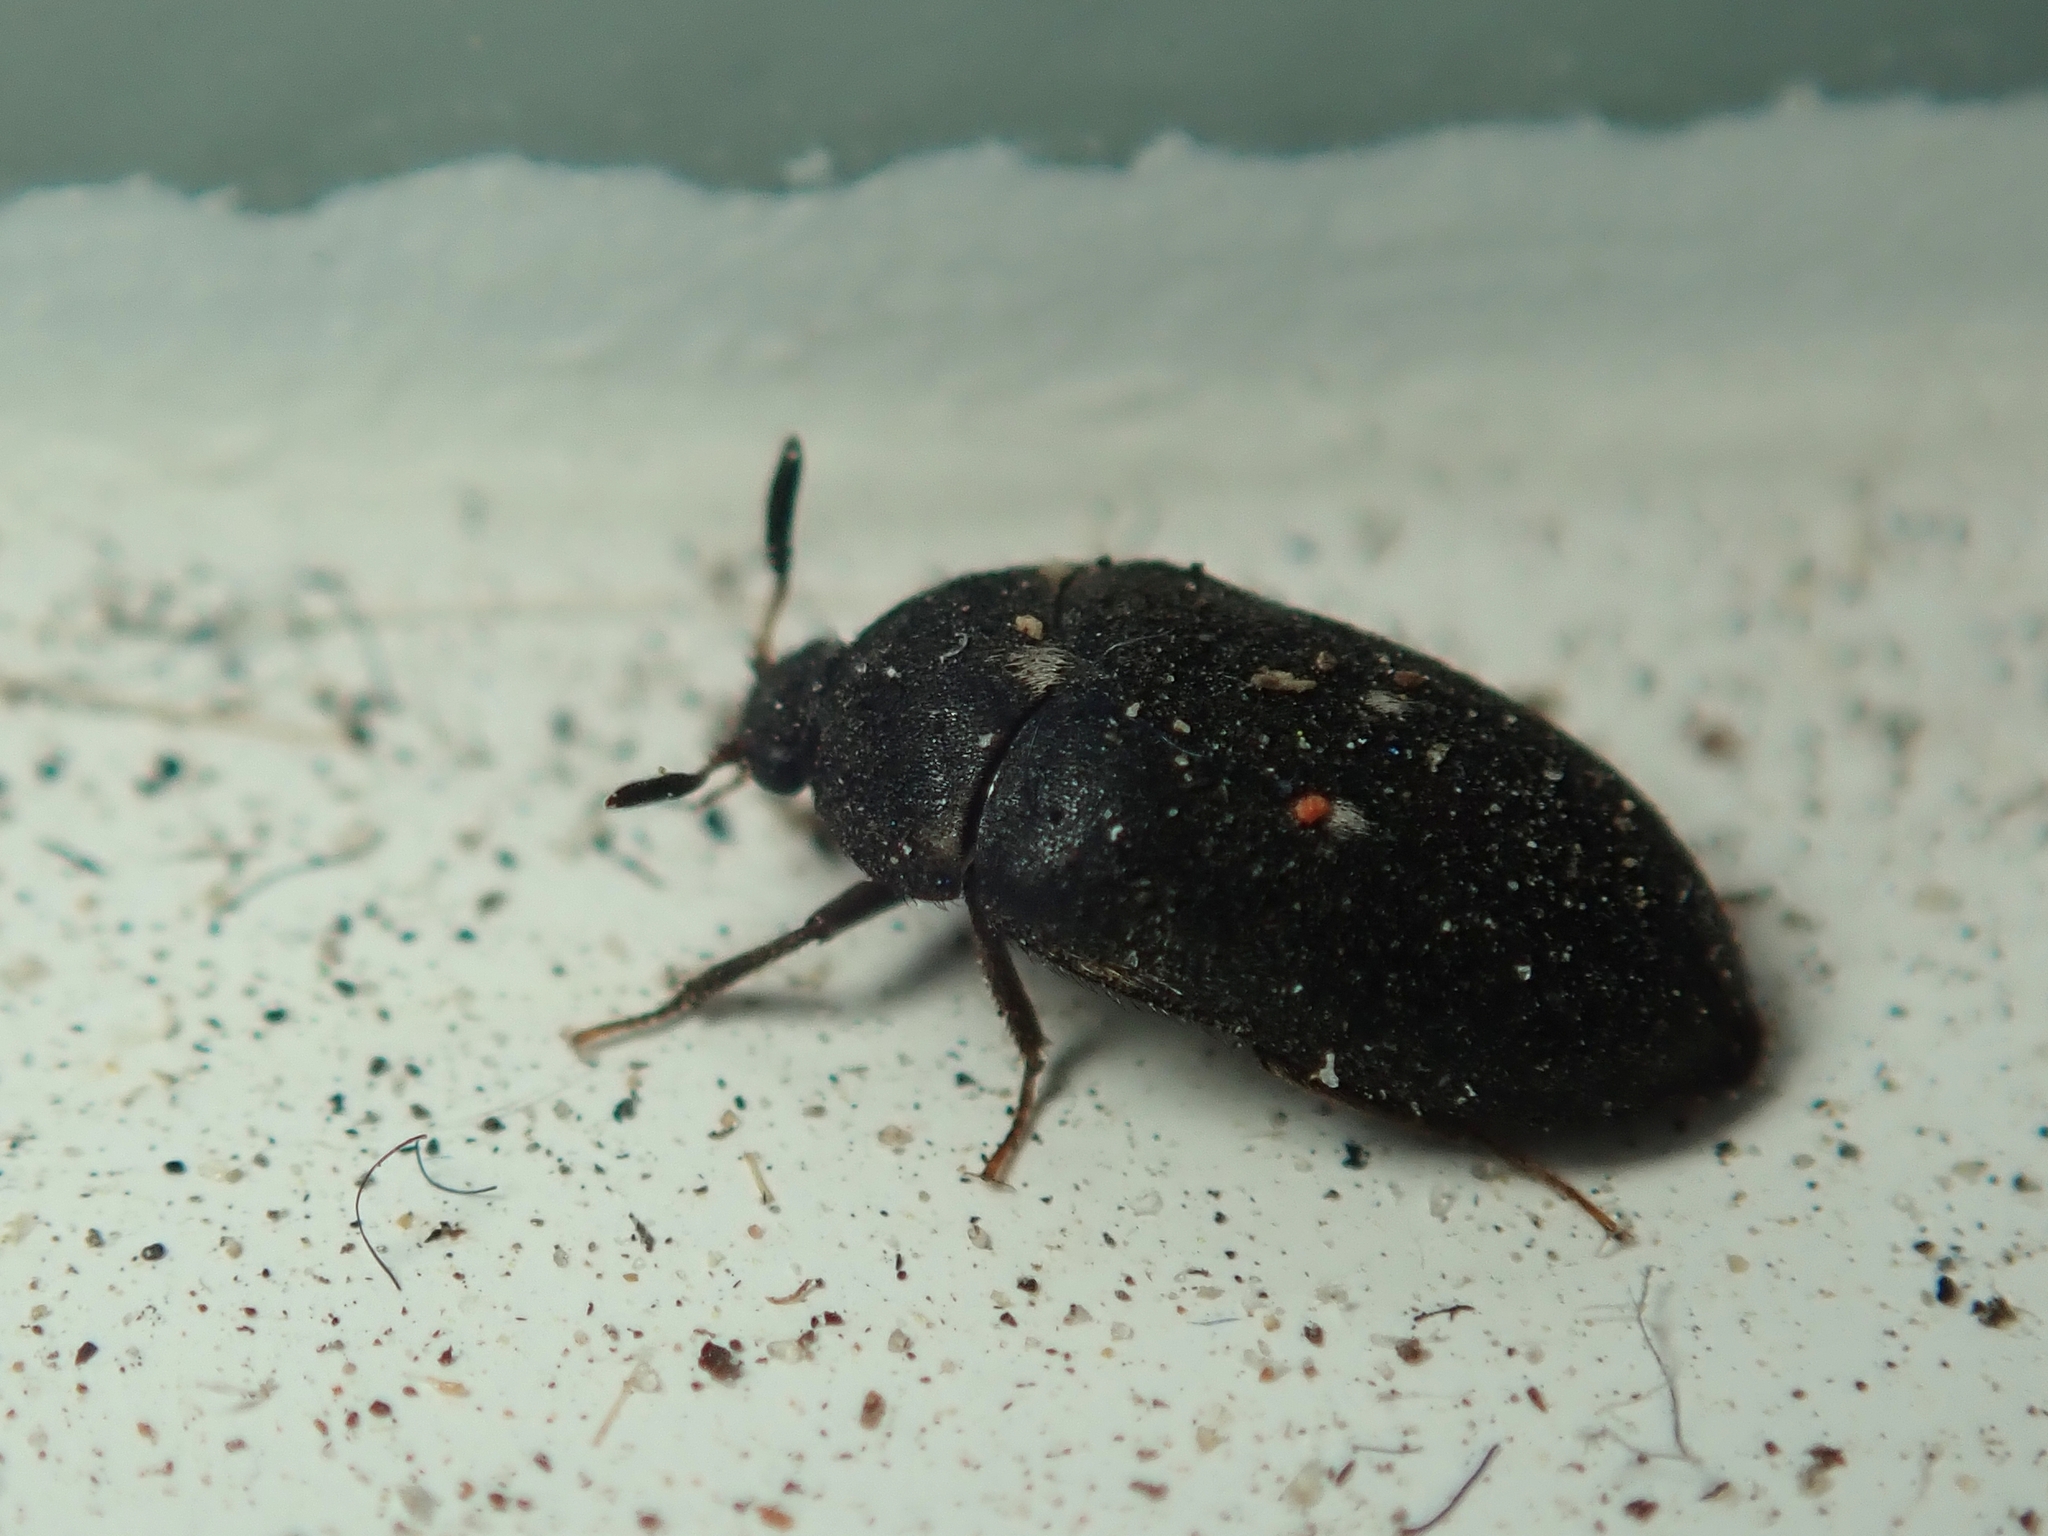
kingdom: Animalia
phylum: Arthropoda
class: Insecta
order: Coleoptera
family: Dermestidae
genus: Attagenus
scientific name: Attagenus pellio
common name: Two-spotted carpet beetle
